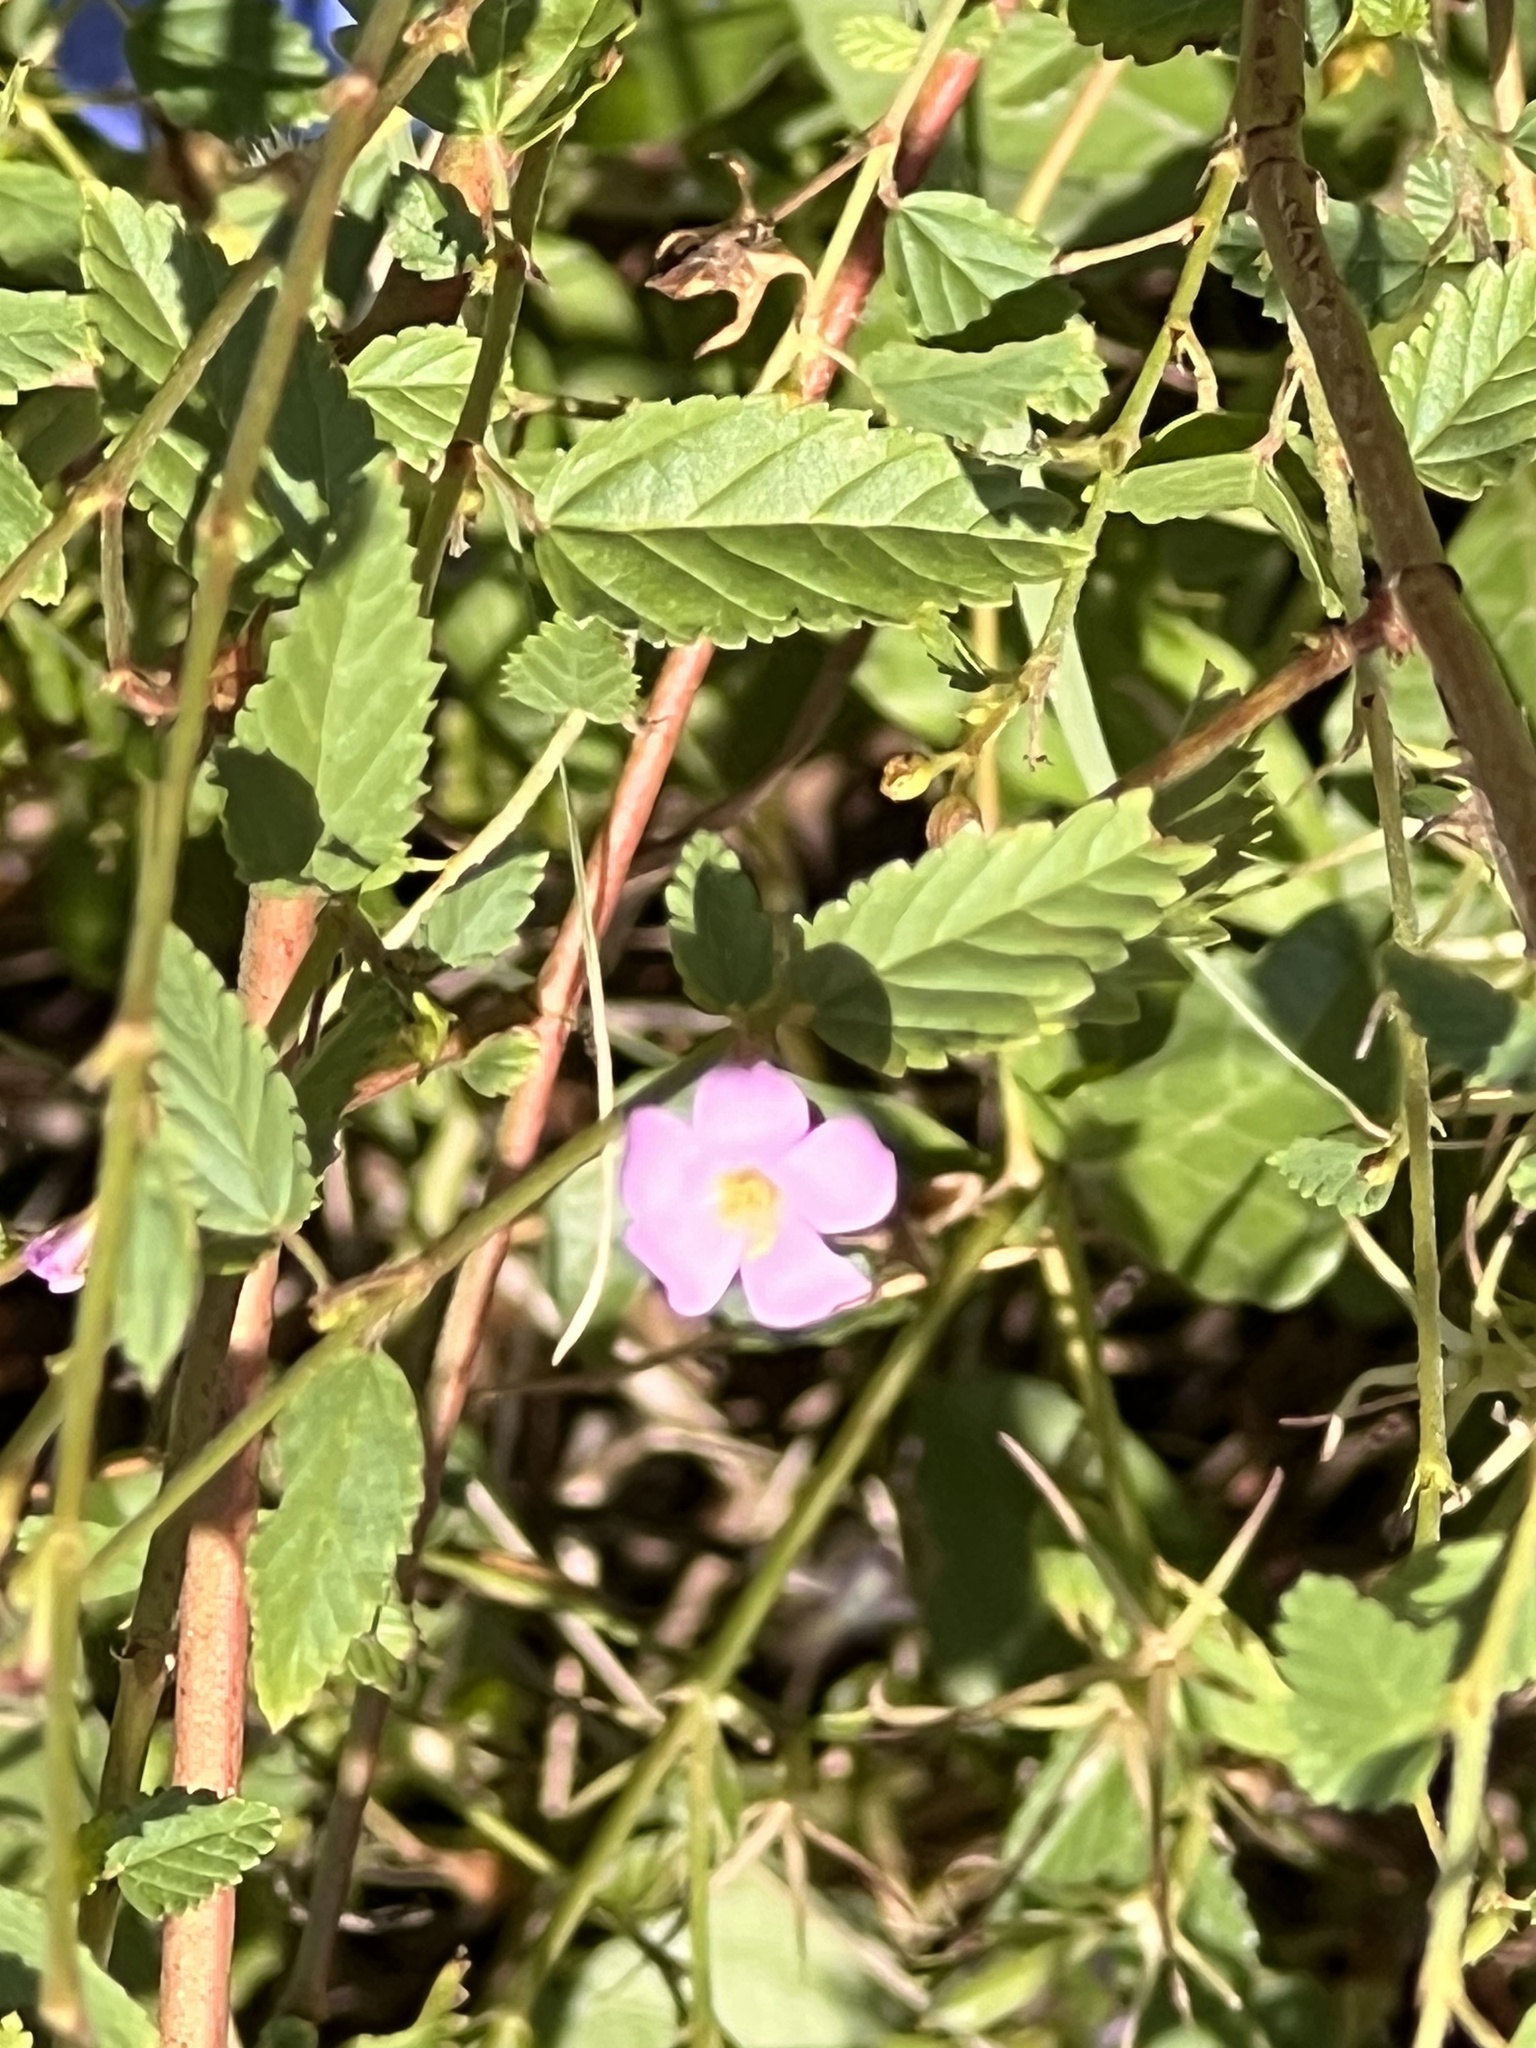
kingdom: Plantae
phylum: Tracheophyta
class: Magnoliopsida
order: Malvales
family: Malvaceae
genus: Melochia
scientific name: Melochia pyramidata
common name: Pyramidflower
